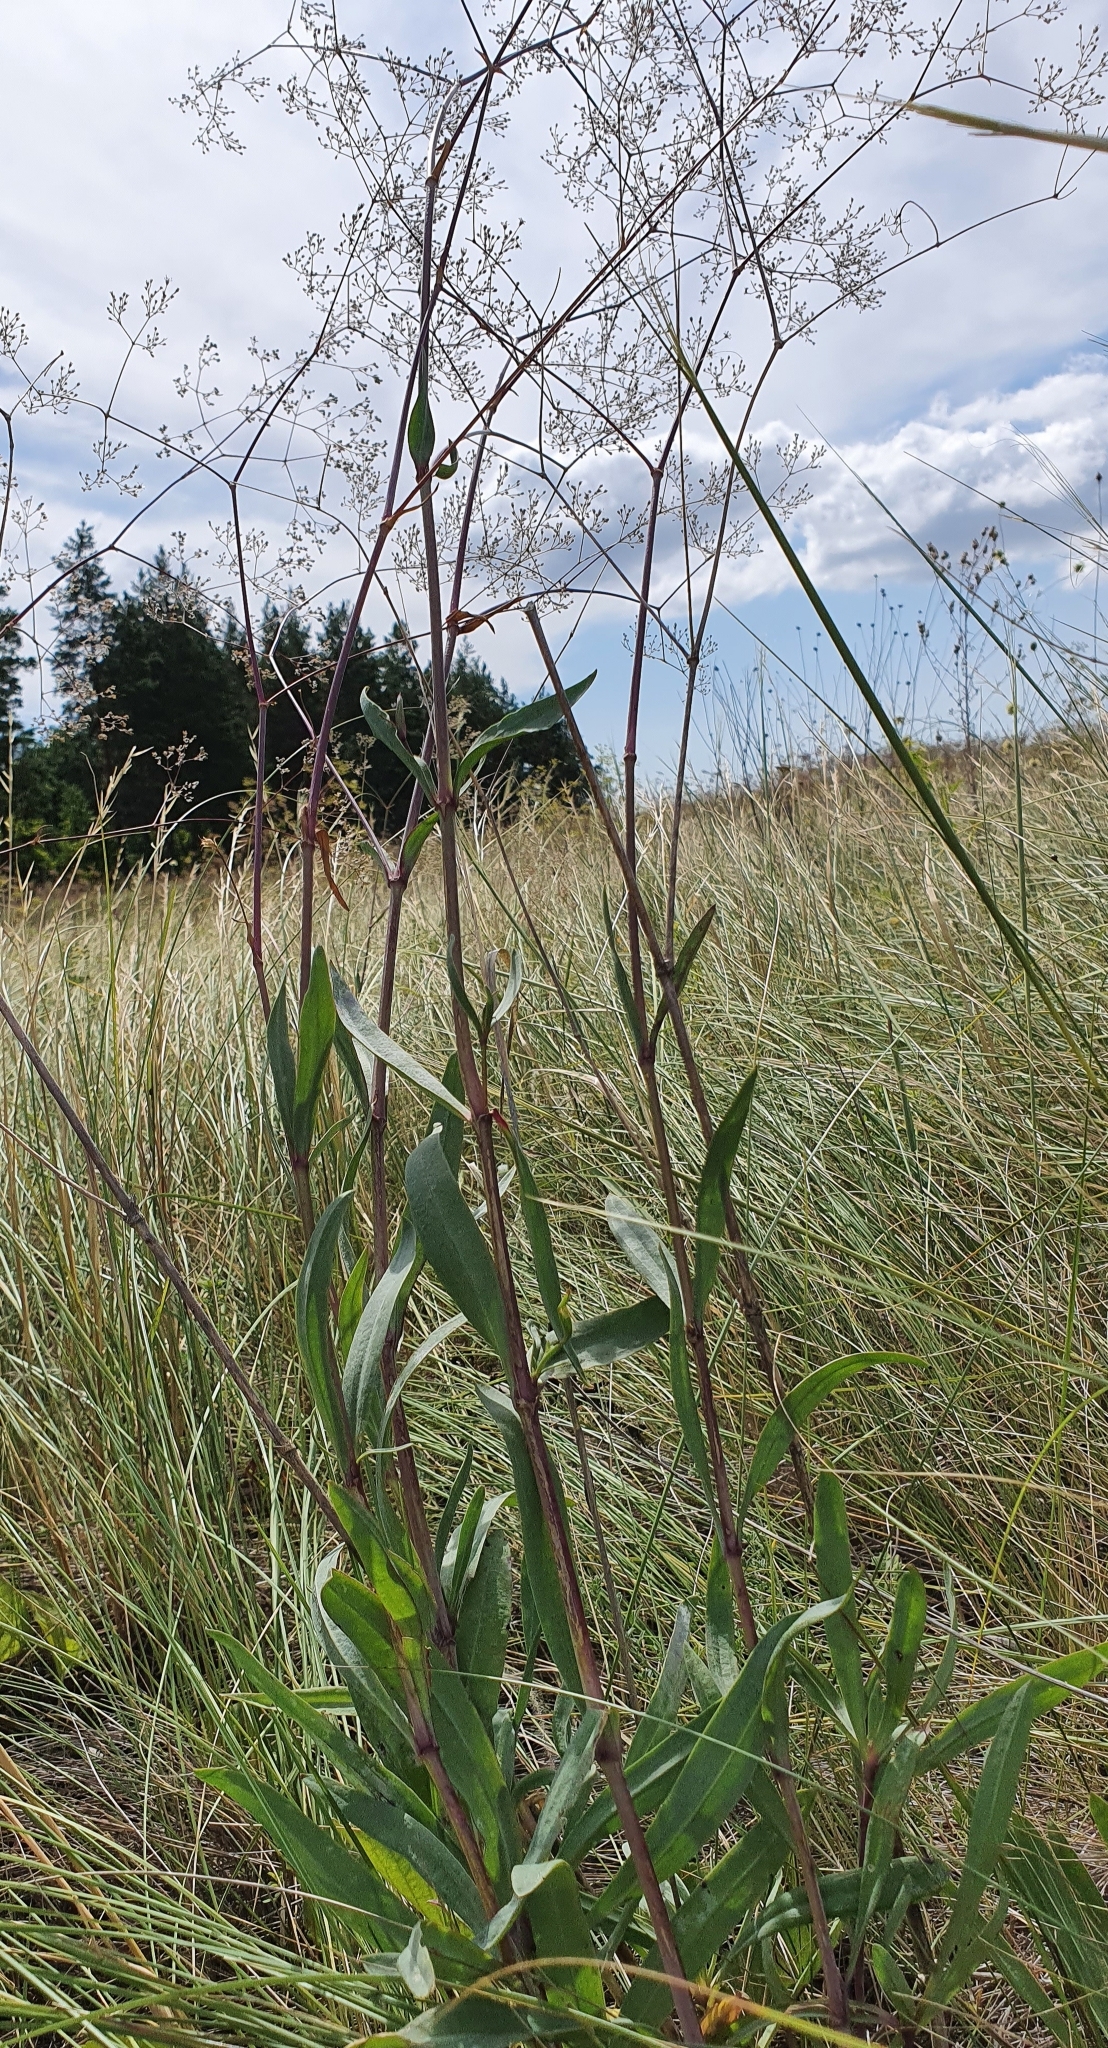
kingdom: Plantae
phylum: Tracheophyta
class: Magnoliopsida
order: Caryophyllales
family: Caryophyllaceae
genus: Gypsophila
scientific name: Gypsophila altissima
